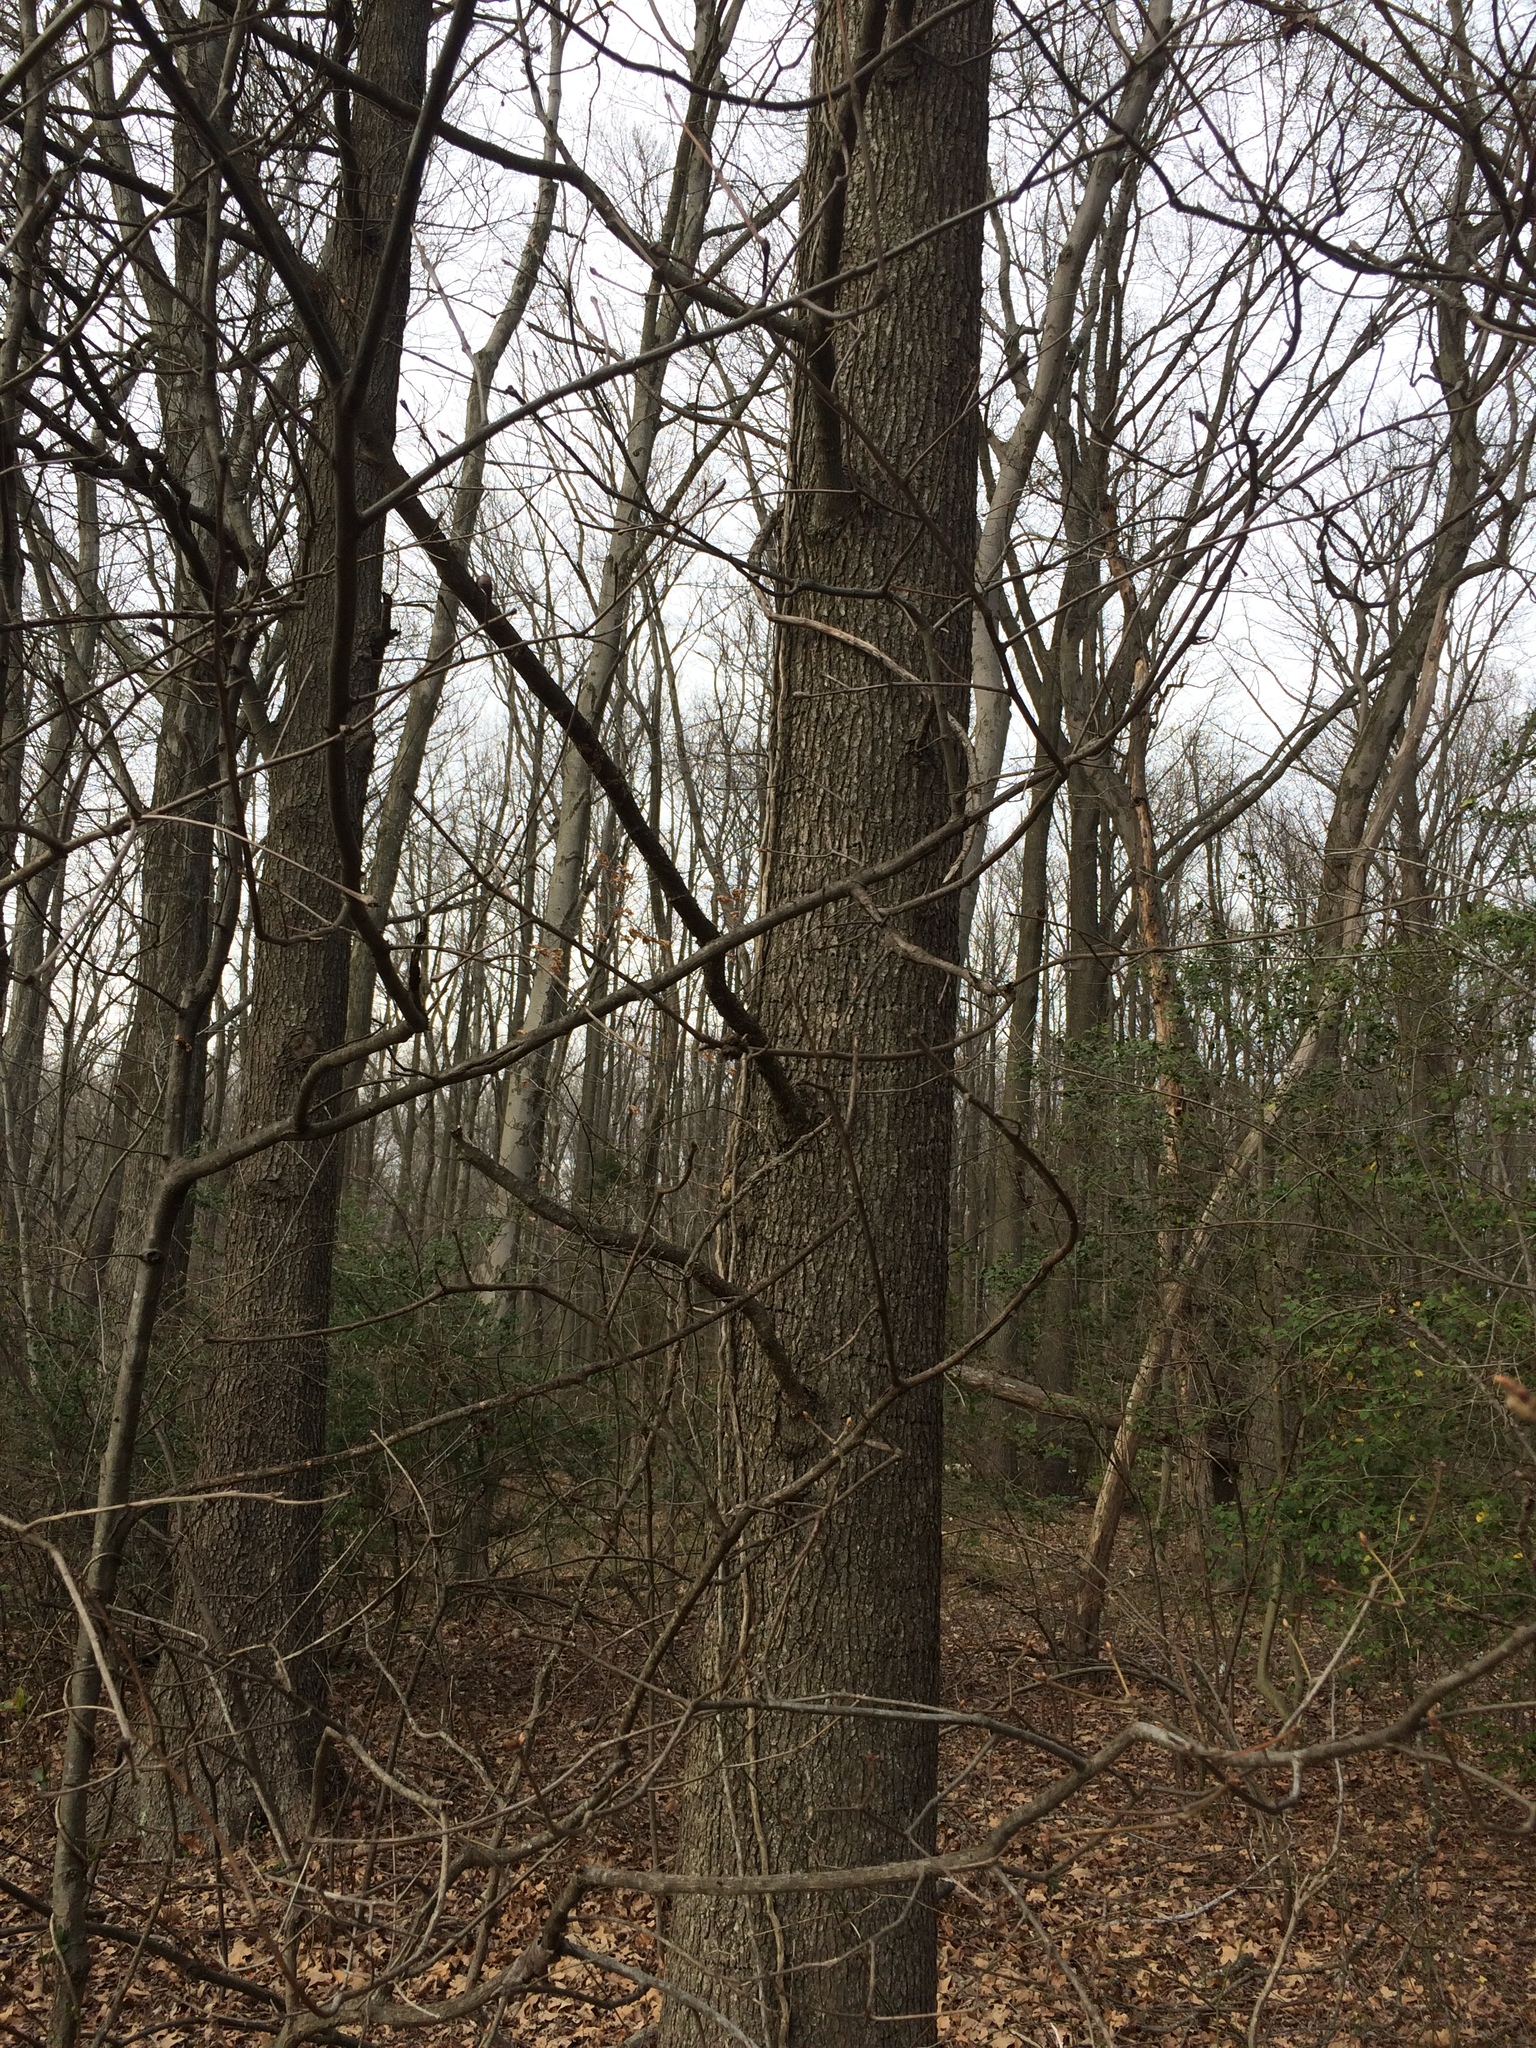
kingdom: Plantae
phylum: Tracheophyta
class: Magnoliopsida
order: Saxifragales
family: Altingiaceae
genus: Liquidambar
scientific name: Liquidambar styraciflua
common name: Sweet gum
